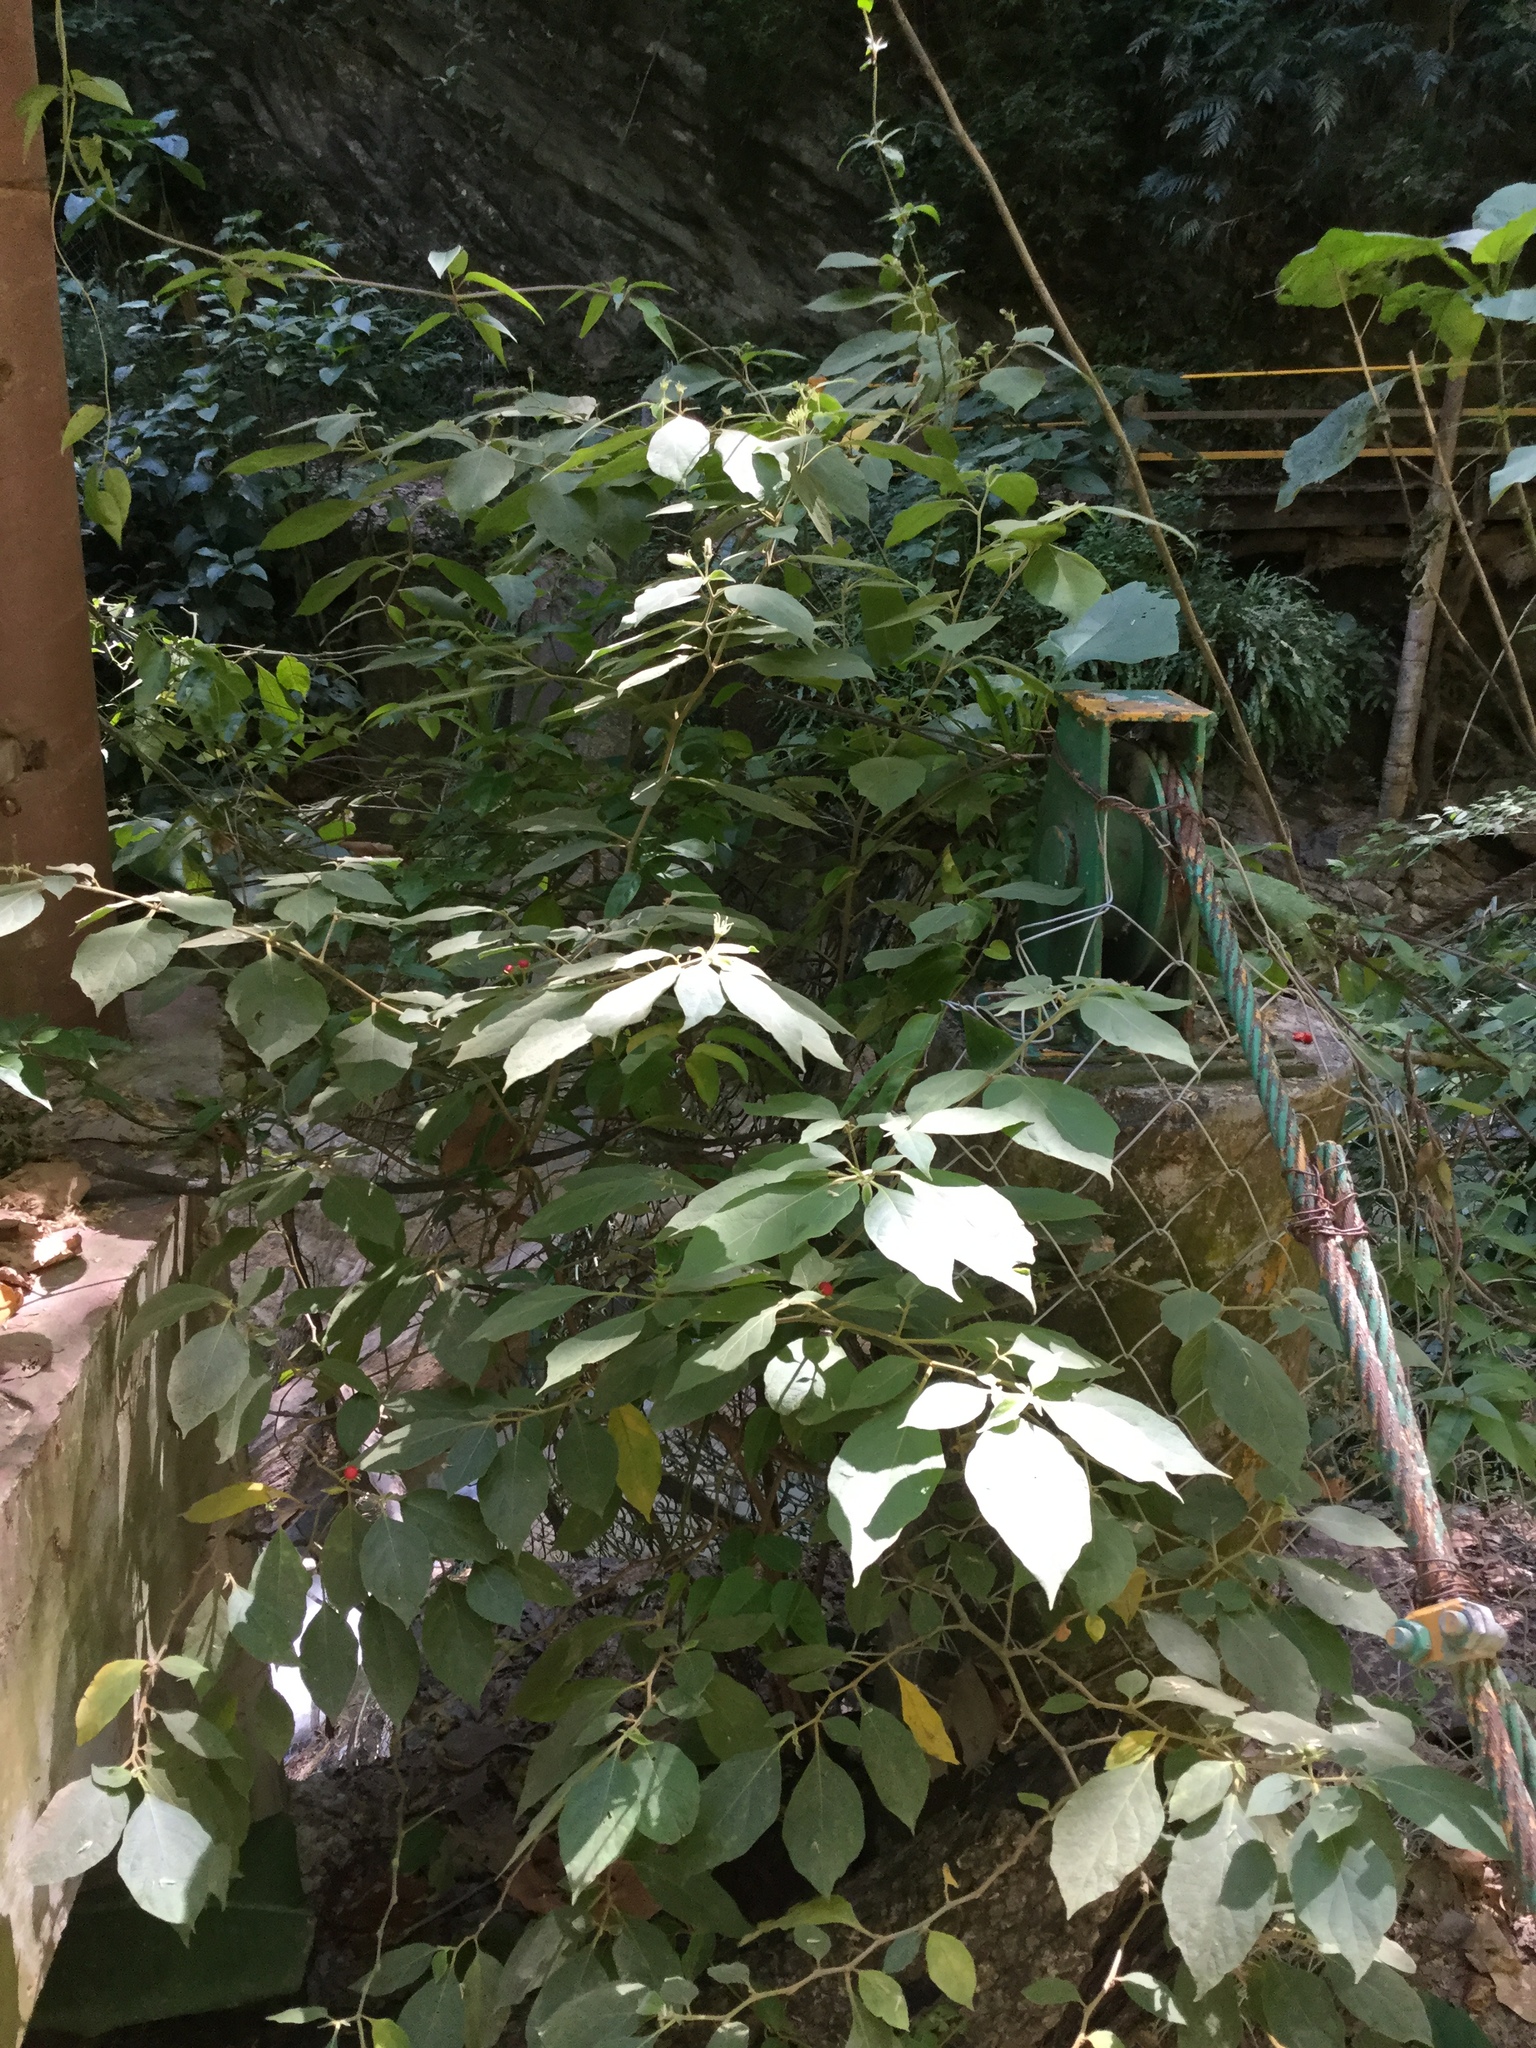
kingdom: Plantae
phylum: Tracheophyta
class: Magnoliopsida
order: Solanales
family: Solanaceae
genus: Lycianthes
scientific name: Lycianthes surotatensis
